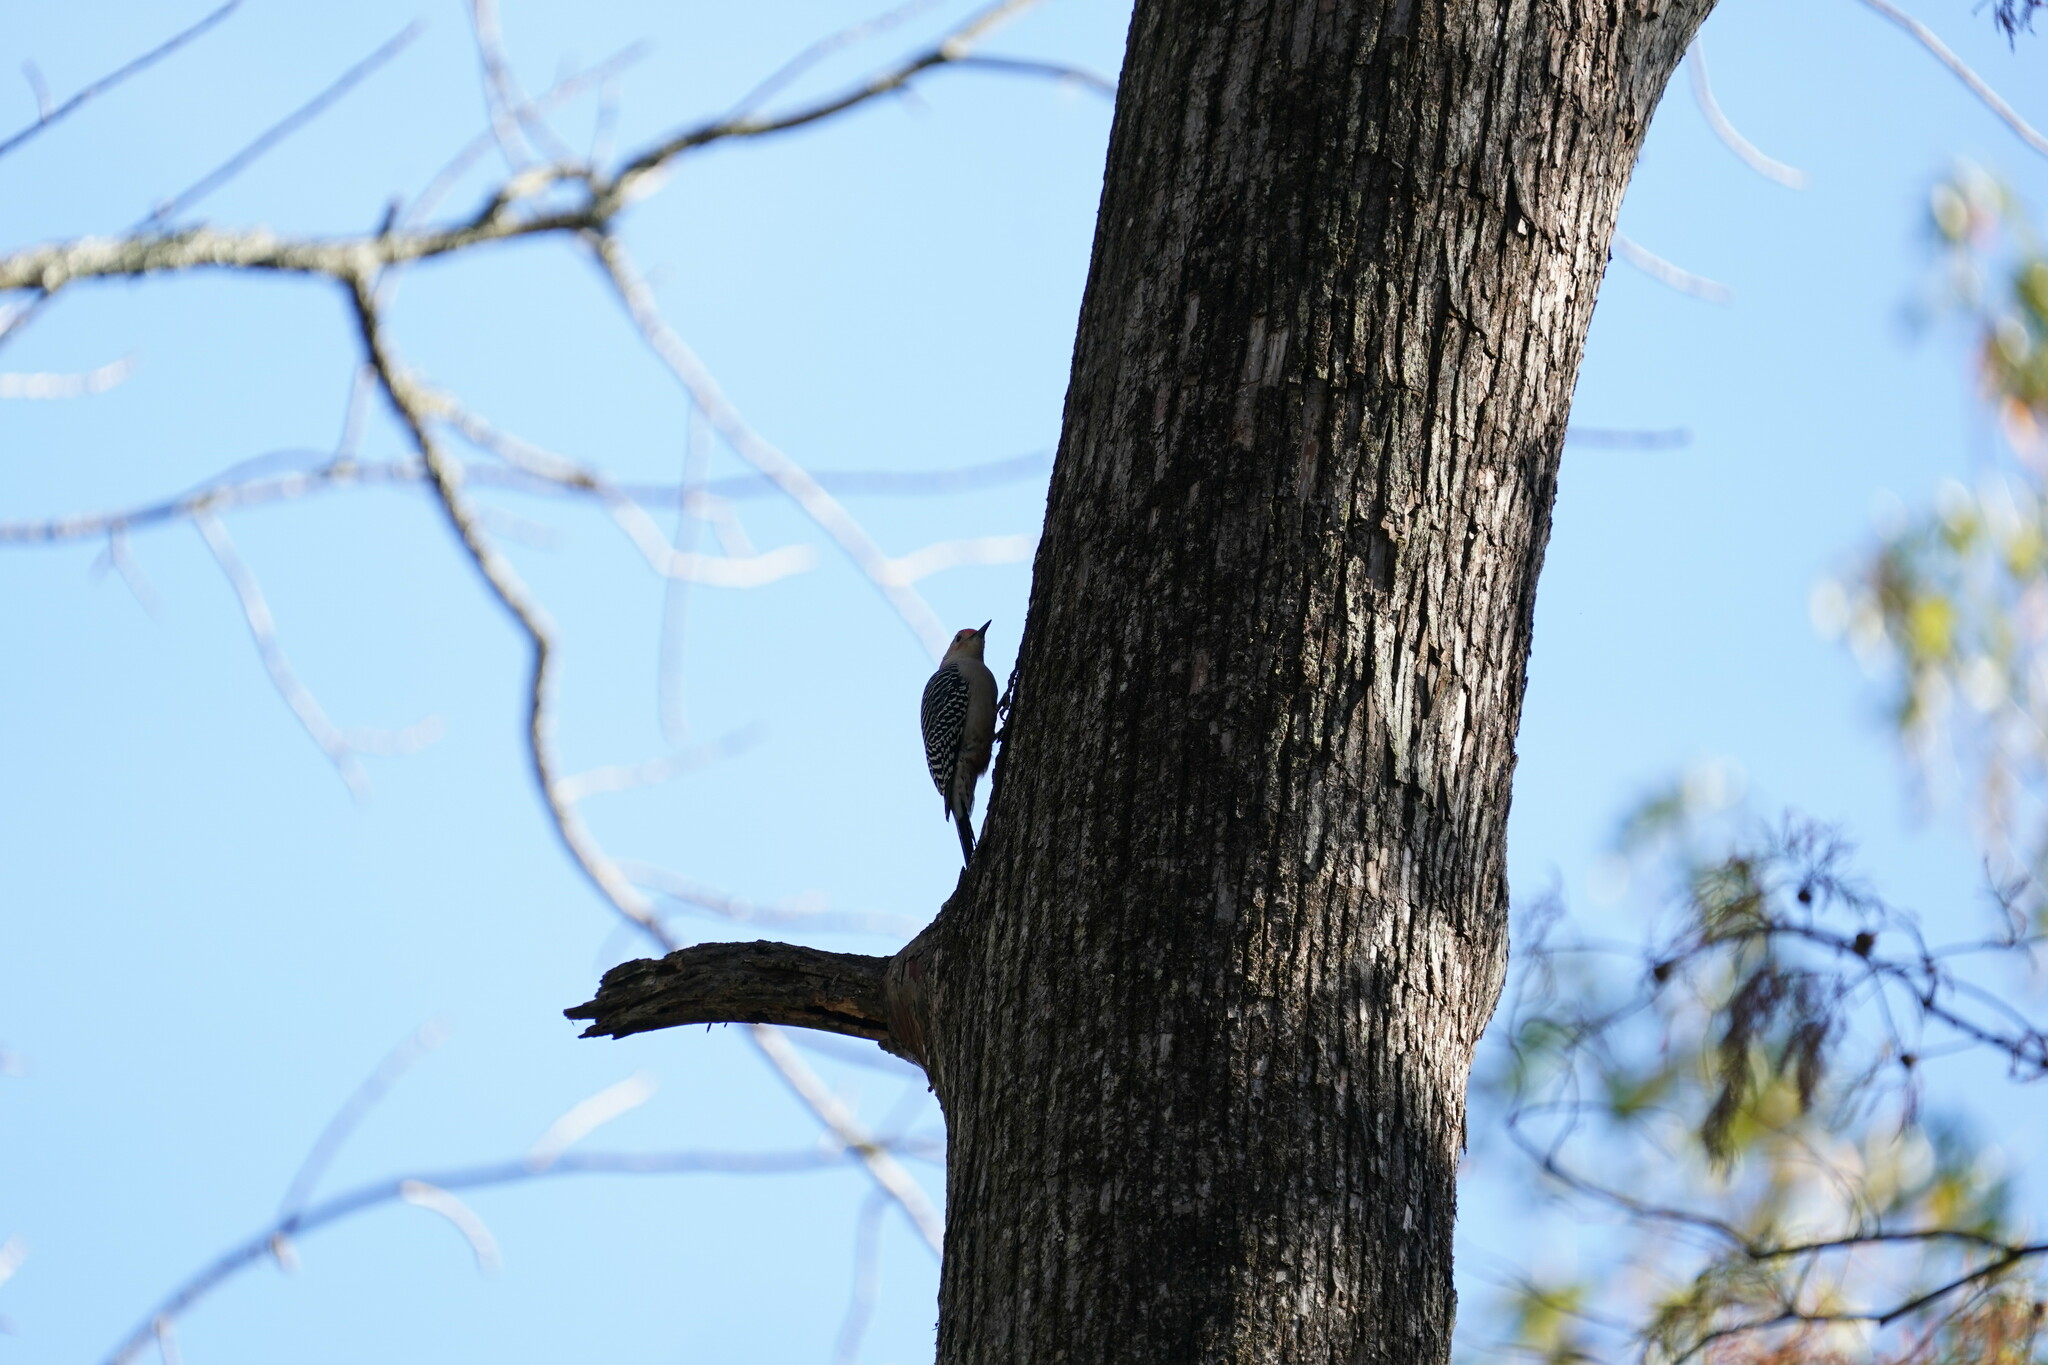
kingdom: Animalia
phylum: Chordata
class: Aves
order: Piciformes
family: Picidae
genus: Melanerpes
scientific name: Melanerpes carolinus
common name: Red-bellied woodpecker
